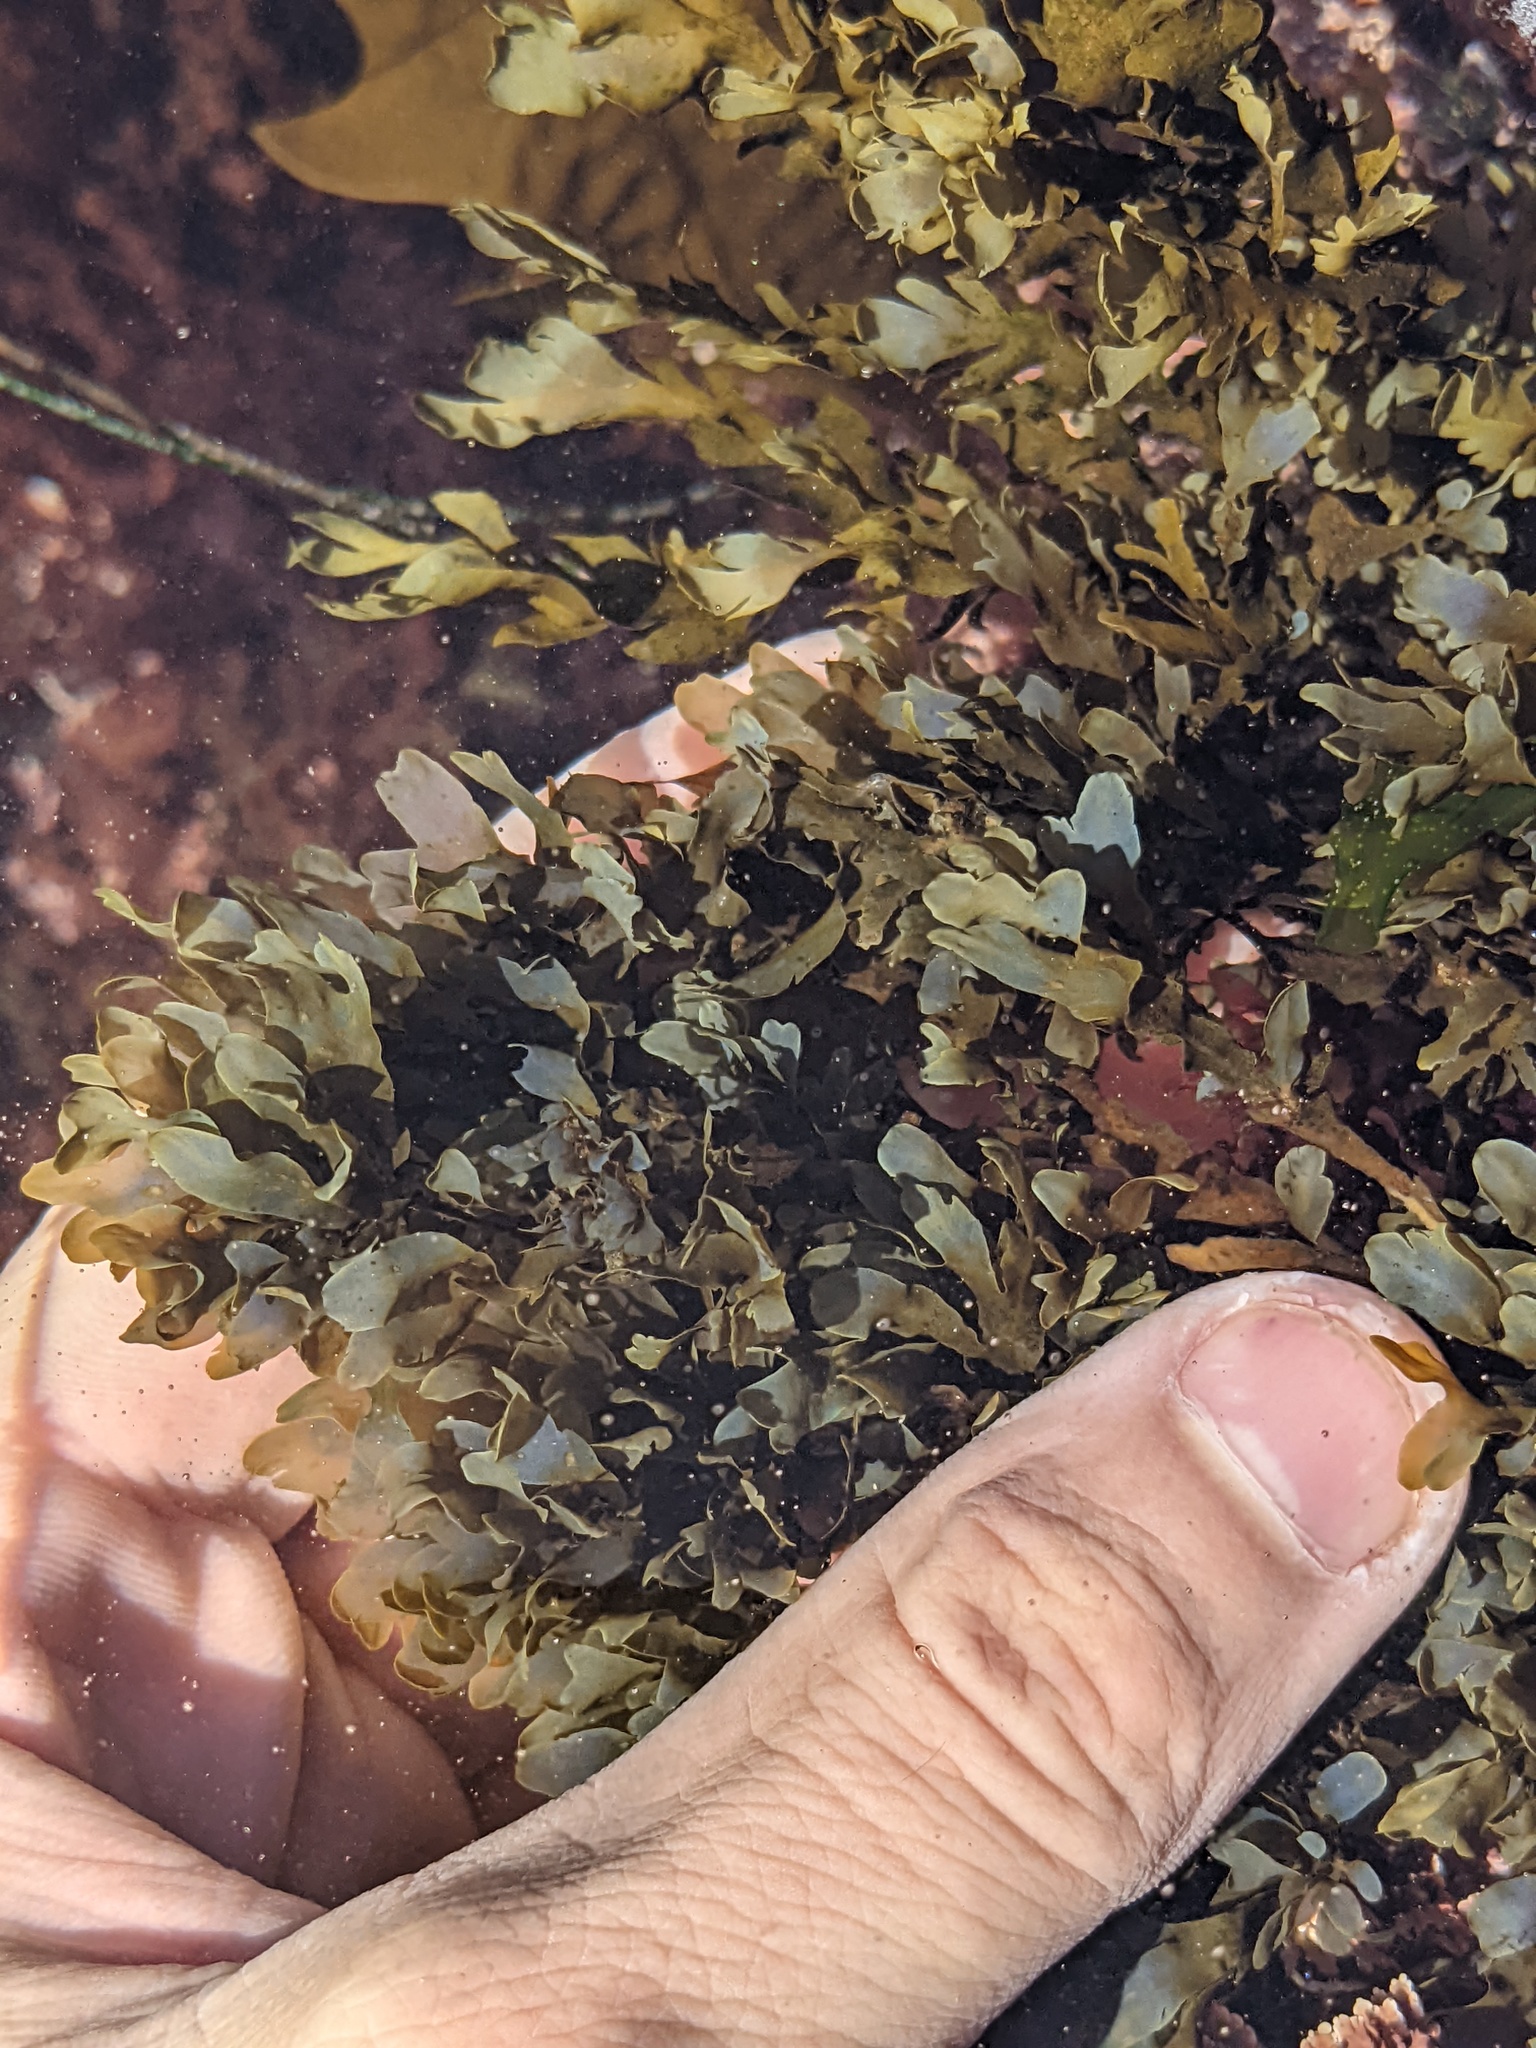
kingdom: Chromista
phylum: Ochrophyta
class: Phaeophyceae
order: Dictyotales
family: Dictyotaceae
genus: Dictyopteris
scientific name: Dictyopteris undulata
